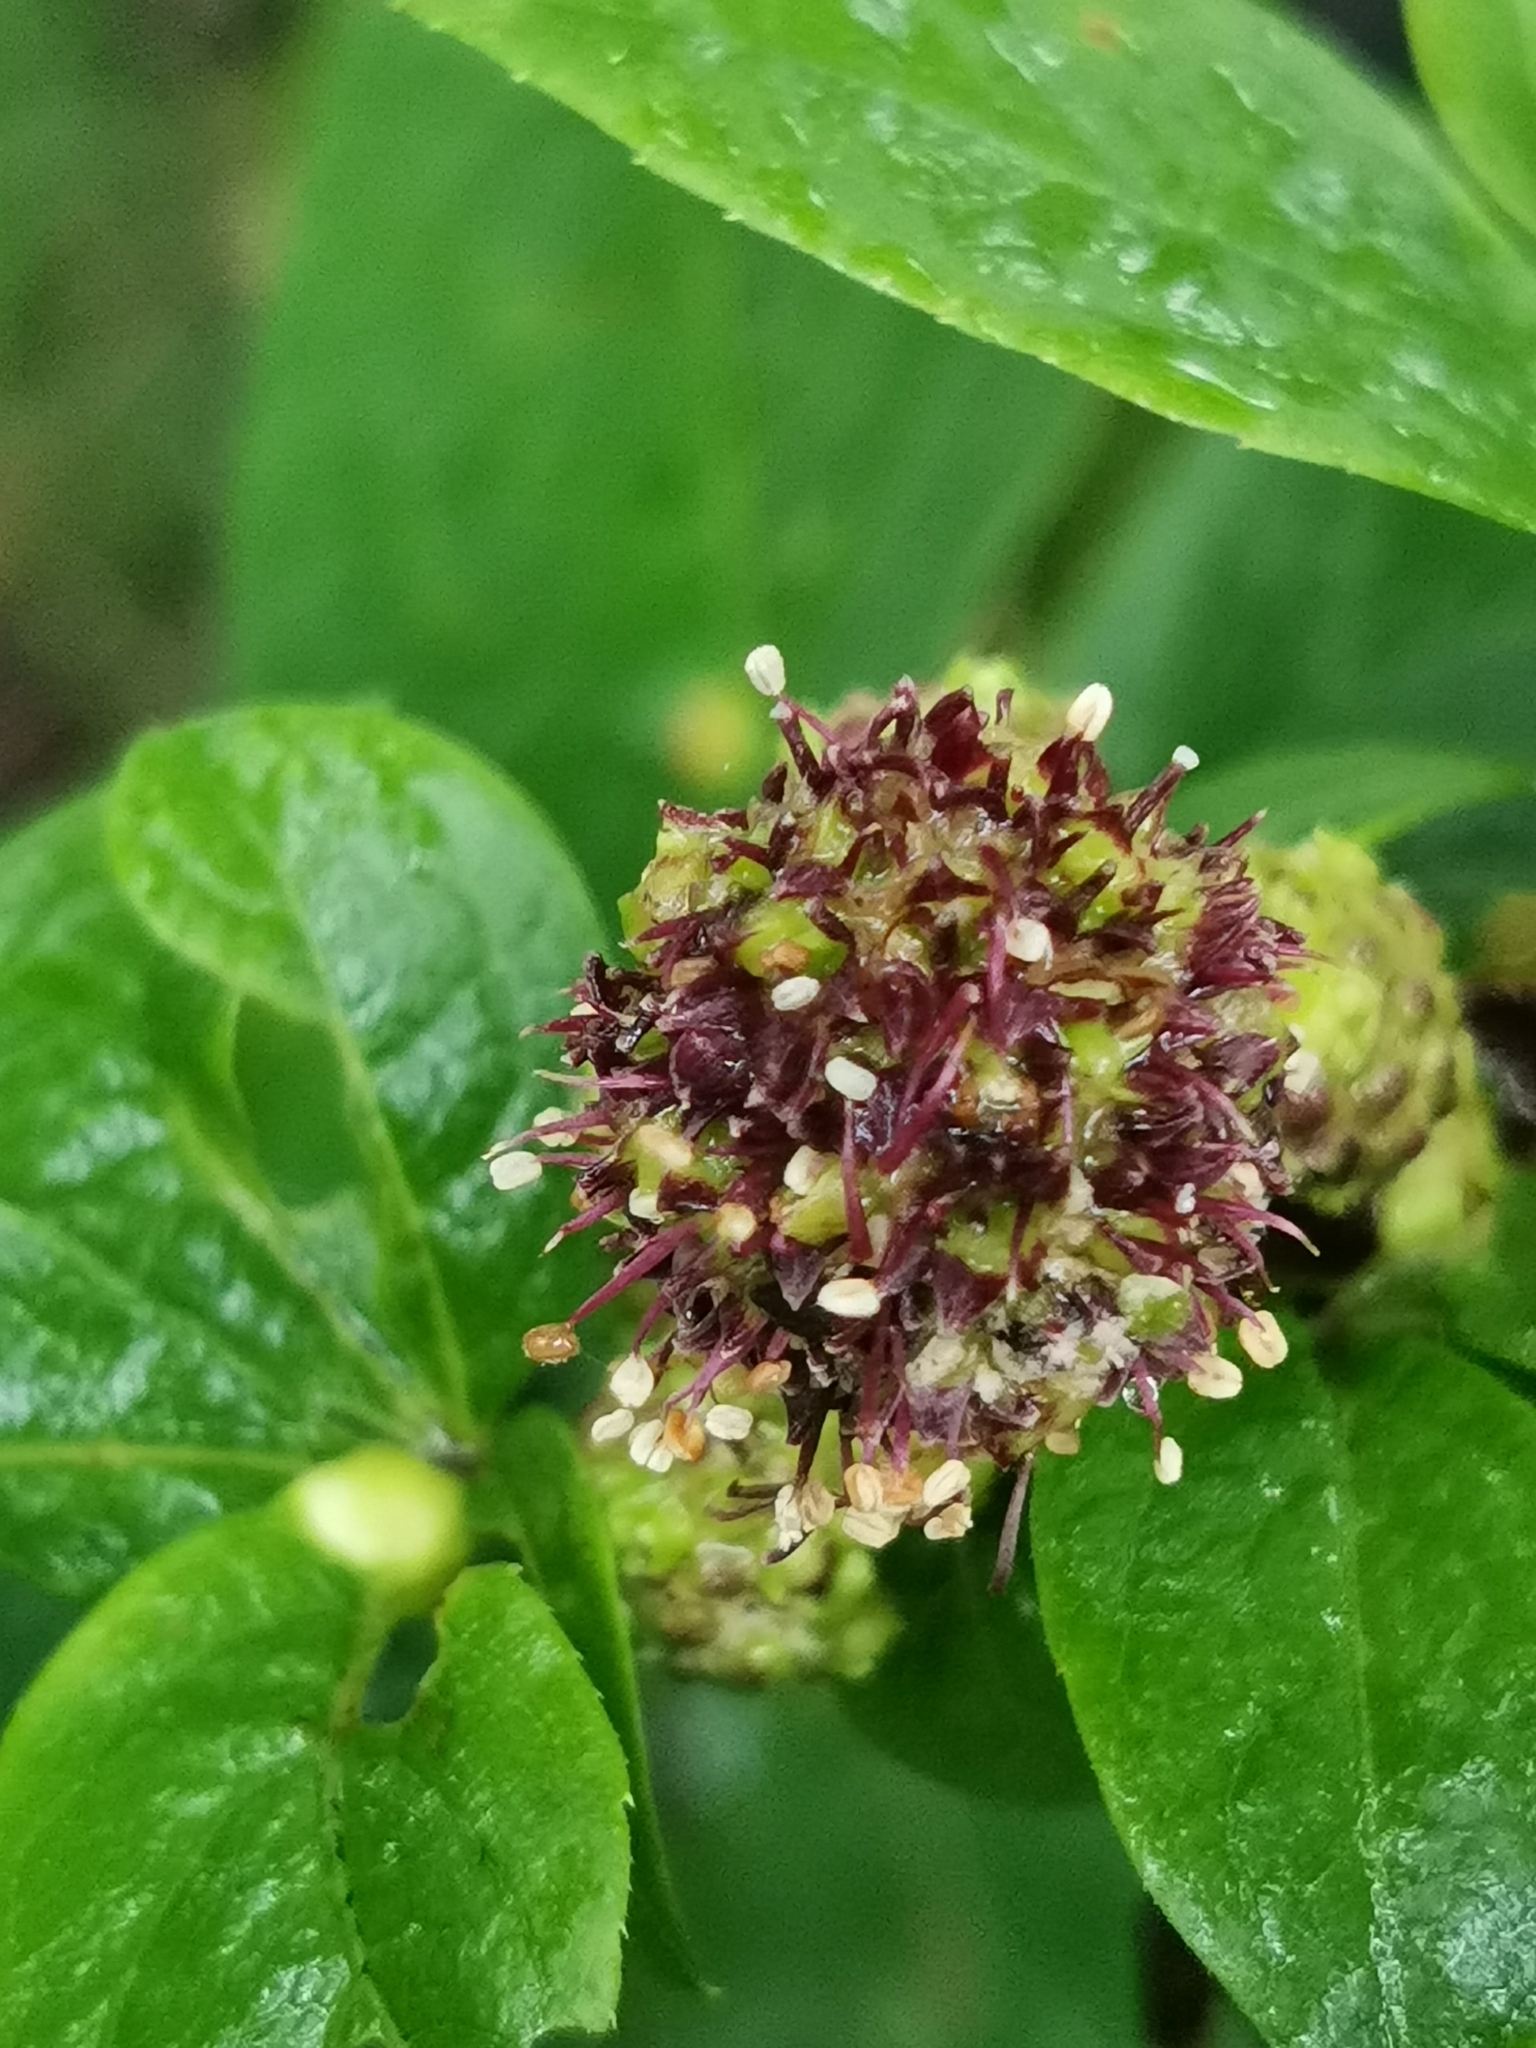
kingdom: Plantae
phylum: Tracheophyta
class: Magnoliopsida
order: Apiales
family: Araliaceae
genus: Eleutherococcus
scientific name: Eleutherococcus sessiliflorus
